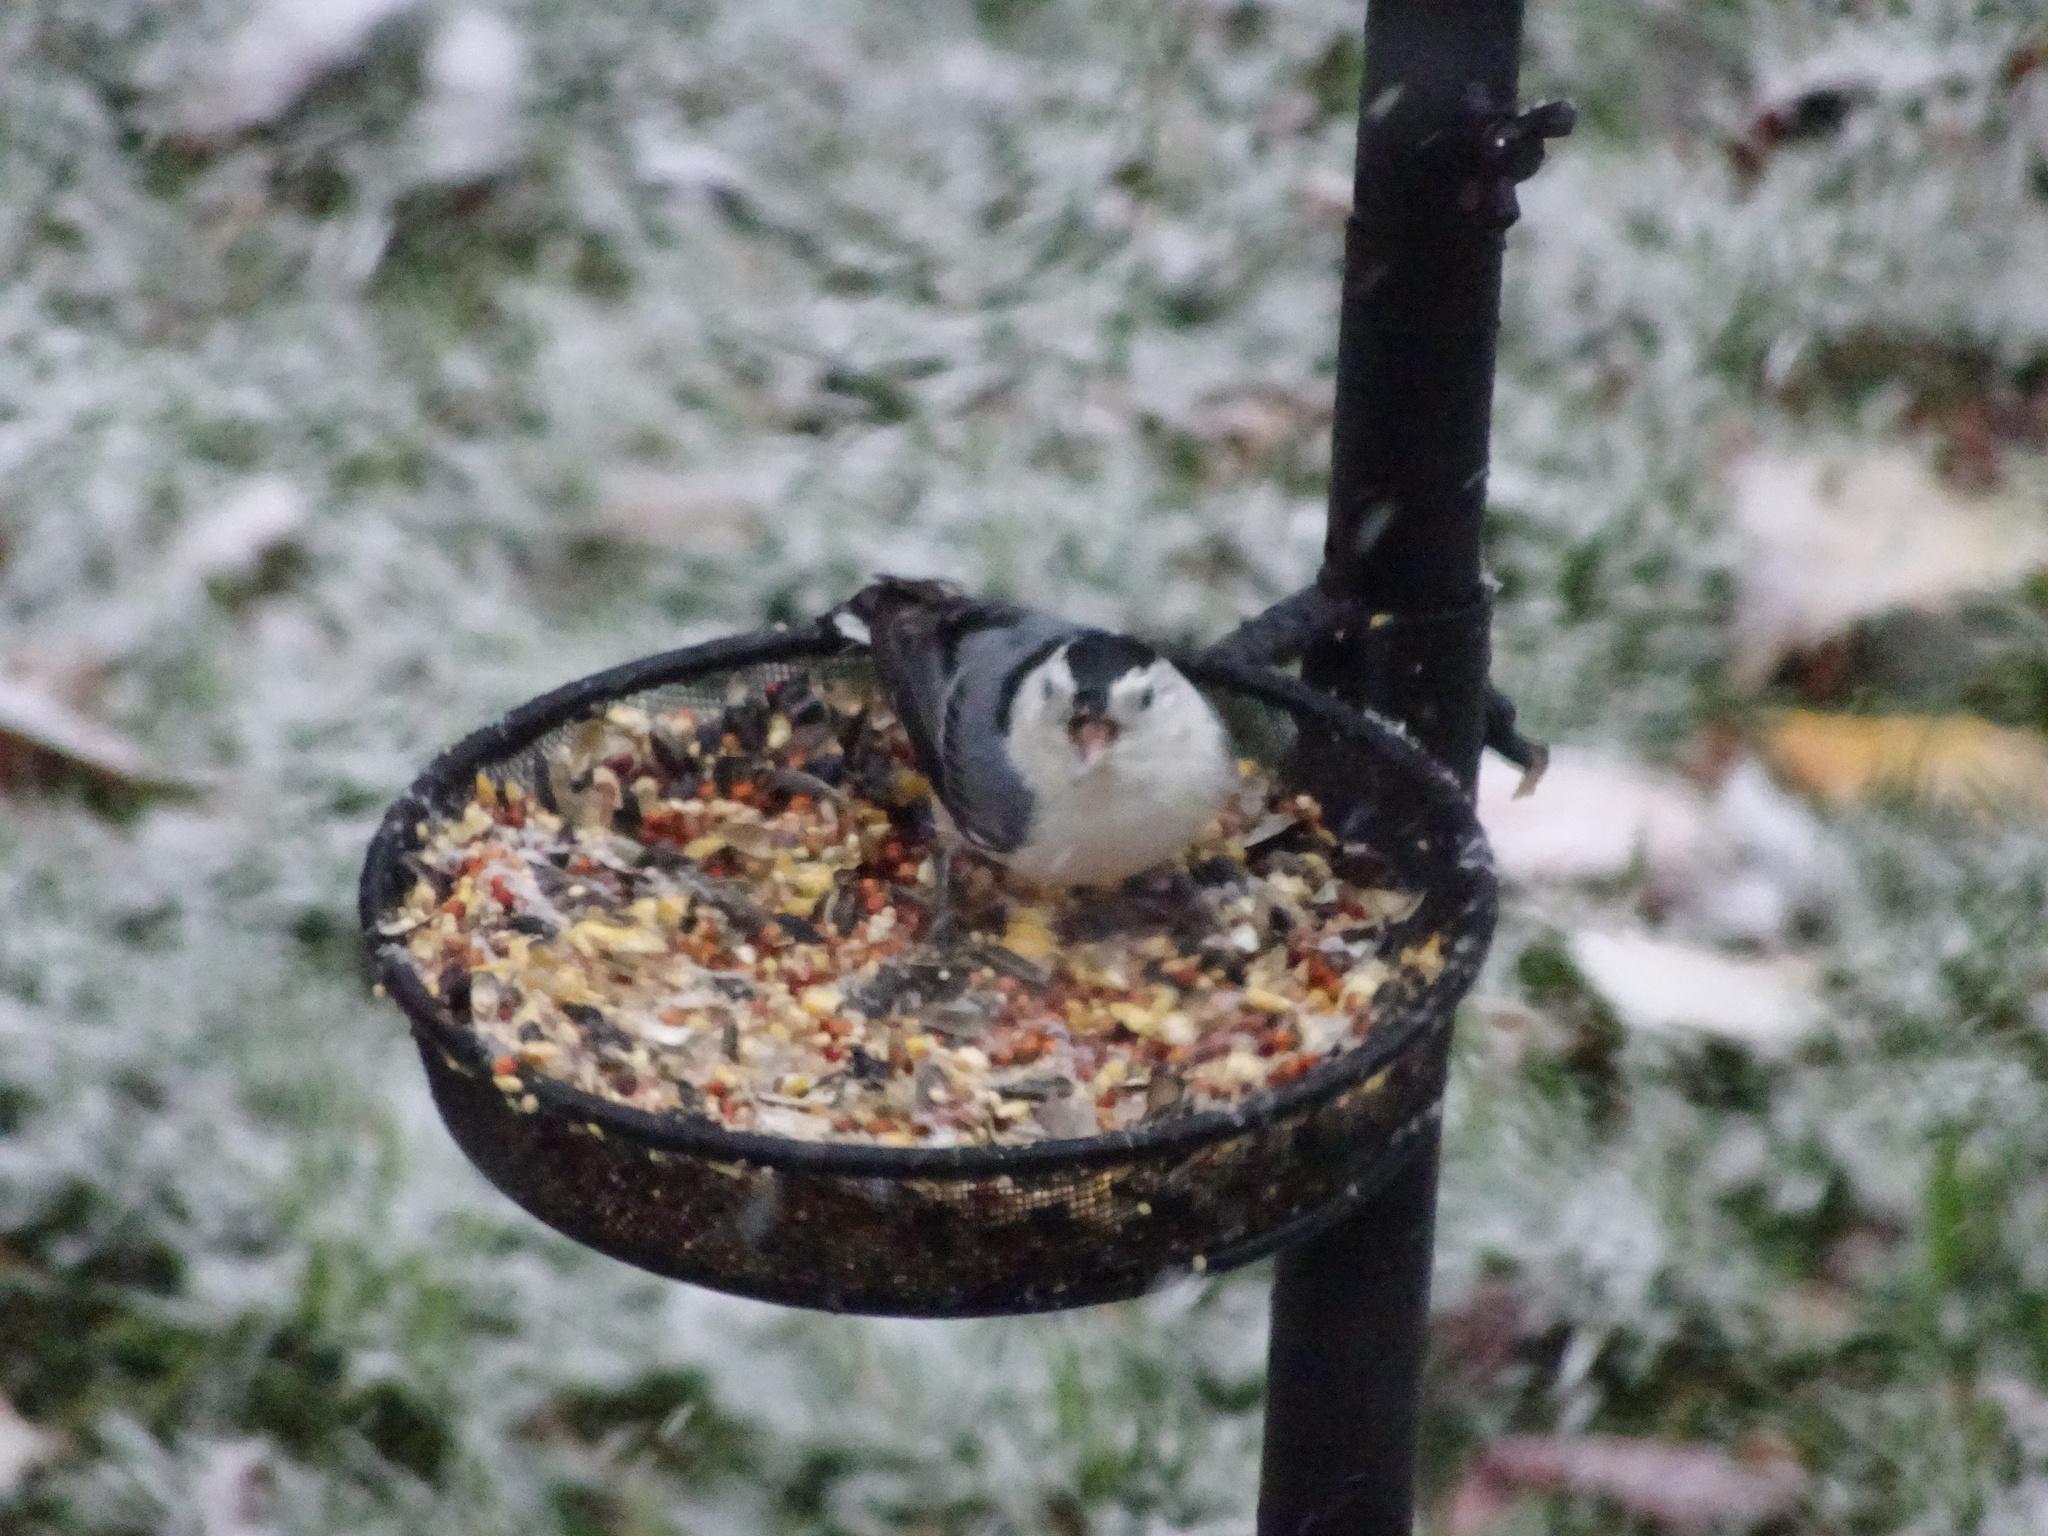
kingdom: Animalia
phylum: Chordata
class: Aves
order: Passeriformes
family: Sittidae
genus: Sitta
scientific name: Sitta carolinensis
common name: White-breasted nuthatch
